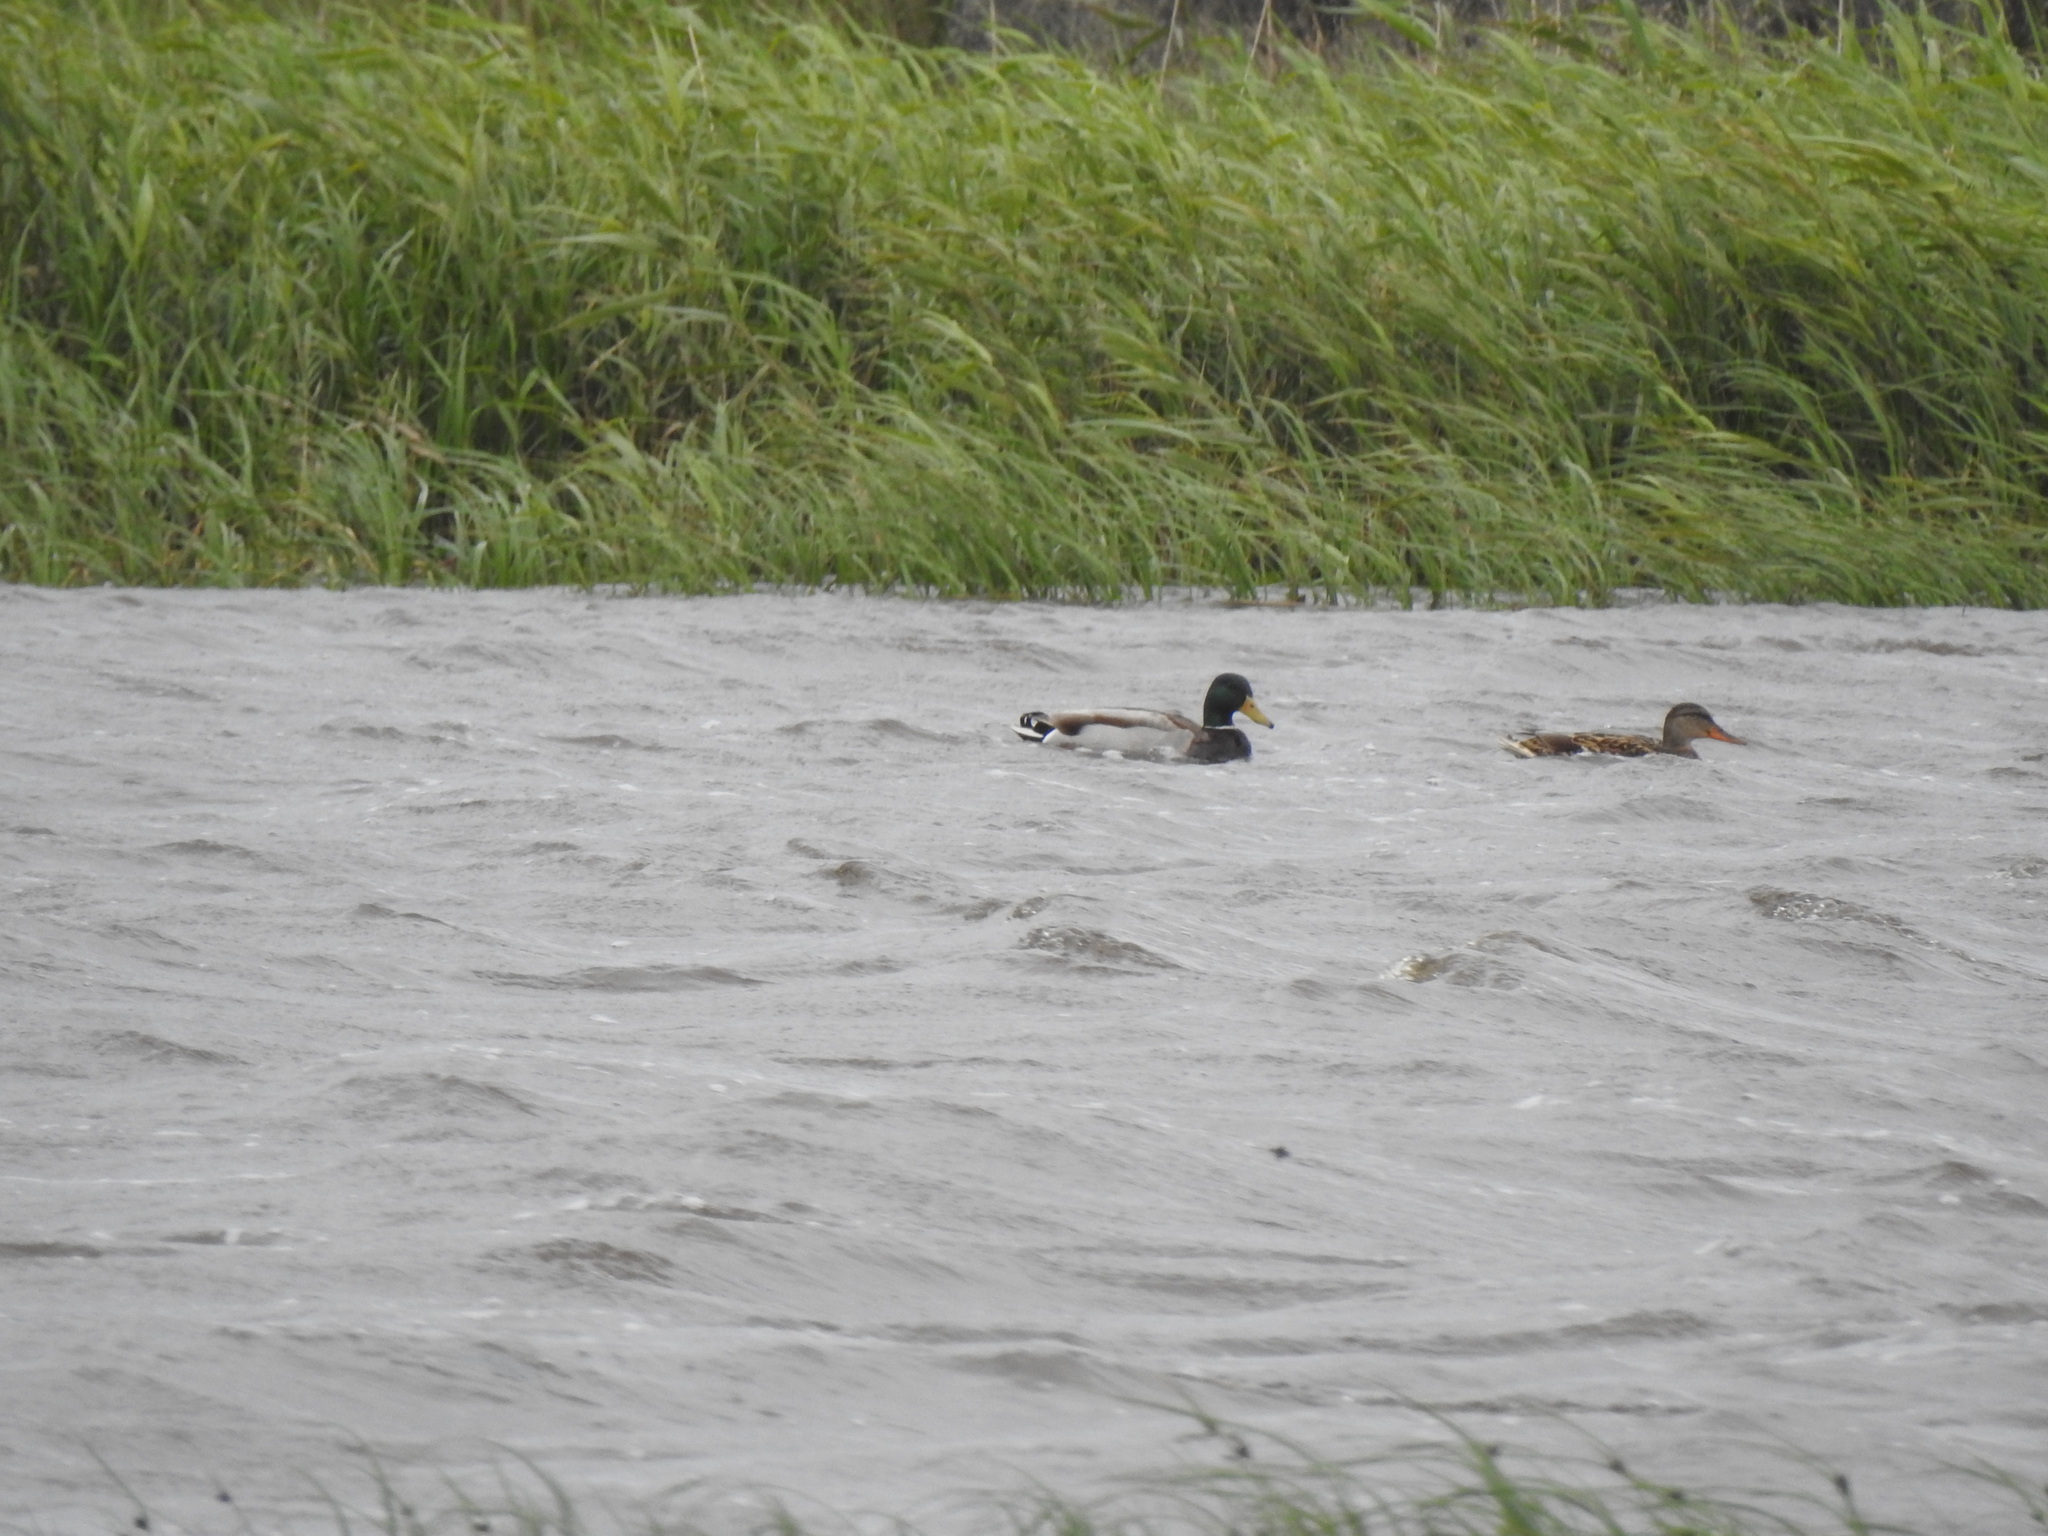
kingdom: Animalia
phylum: Chordata
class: Aves
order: Anseriformes
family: Anatidae
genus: Anas
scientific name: Anas platyrhynchos
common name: Mallard
